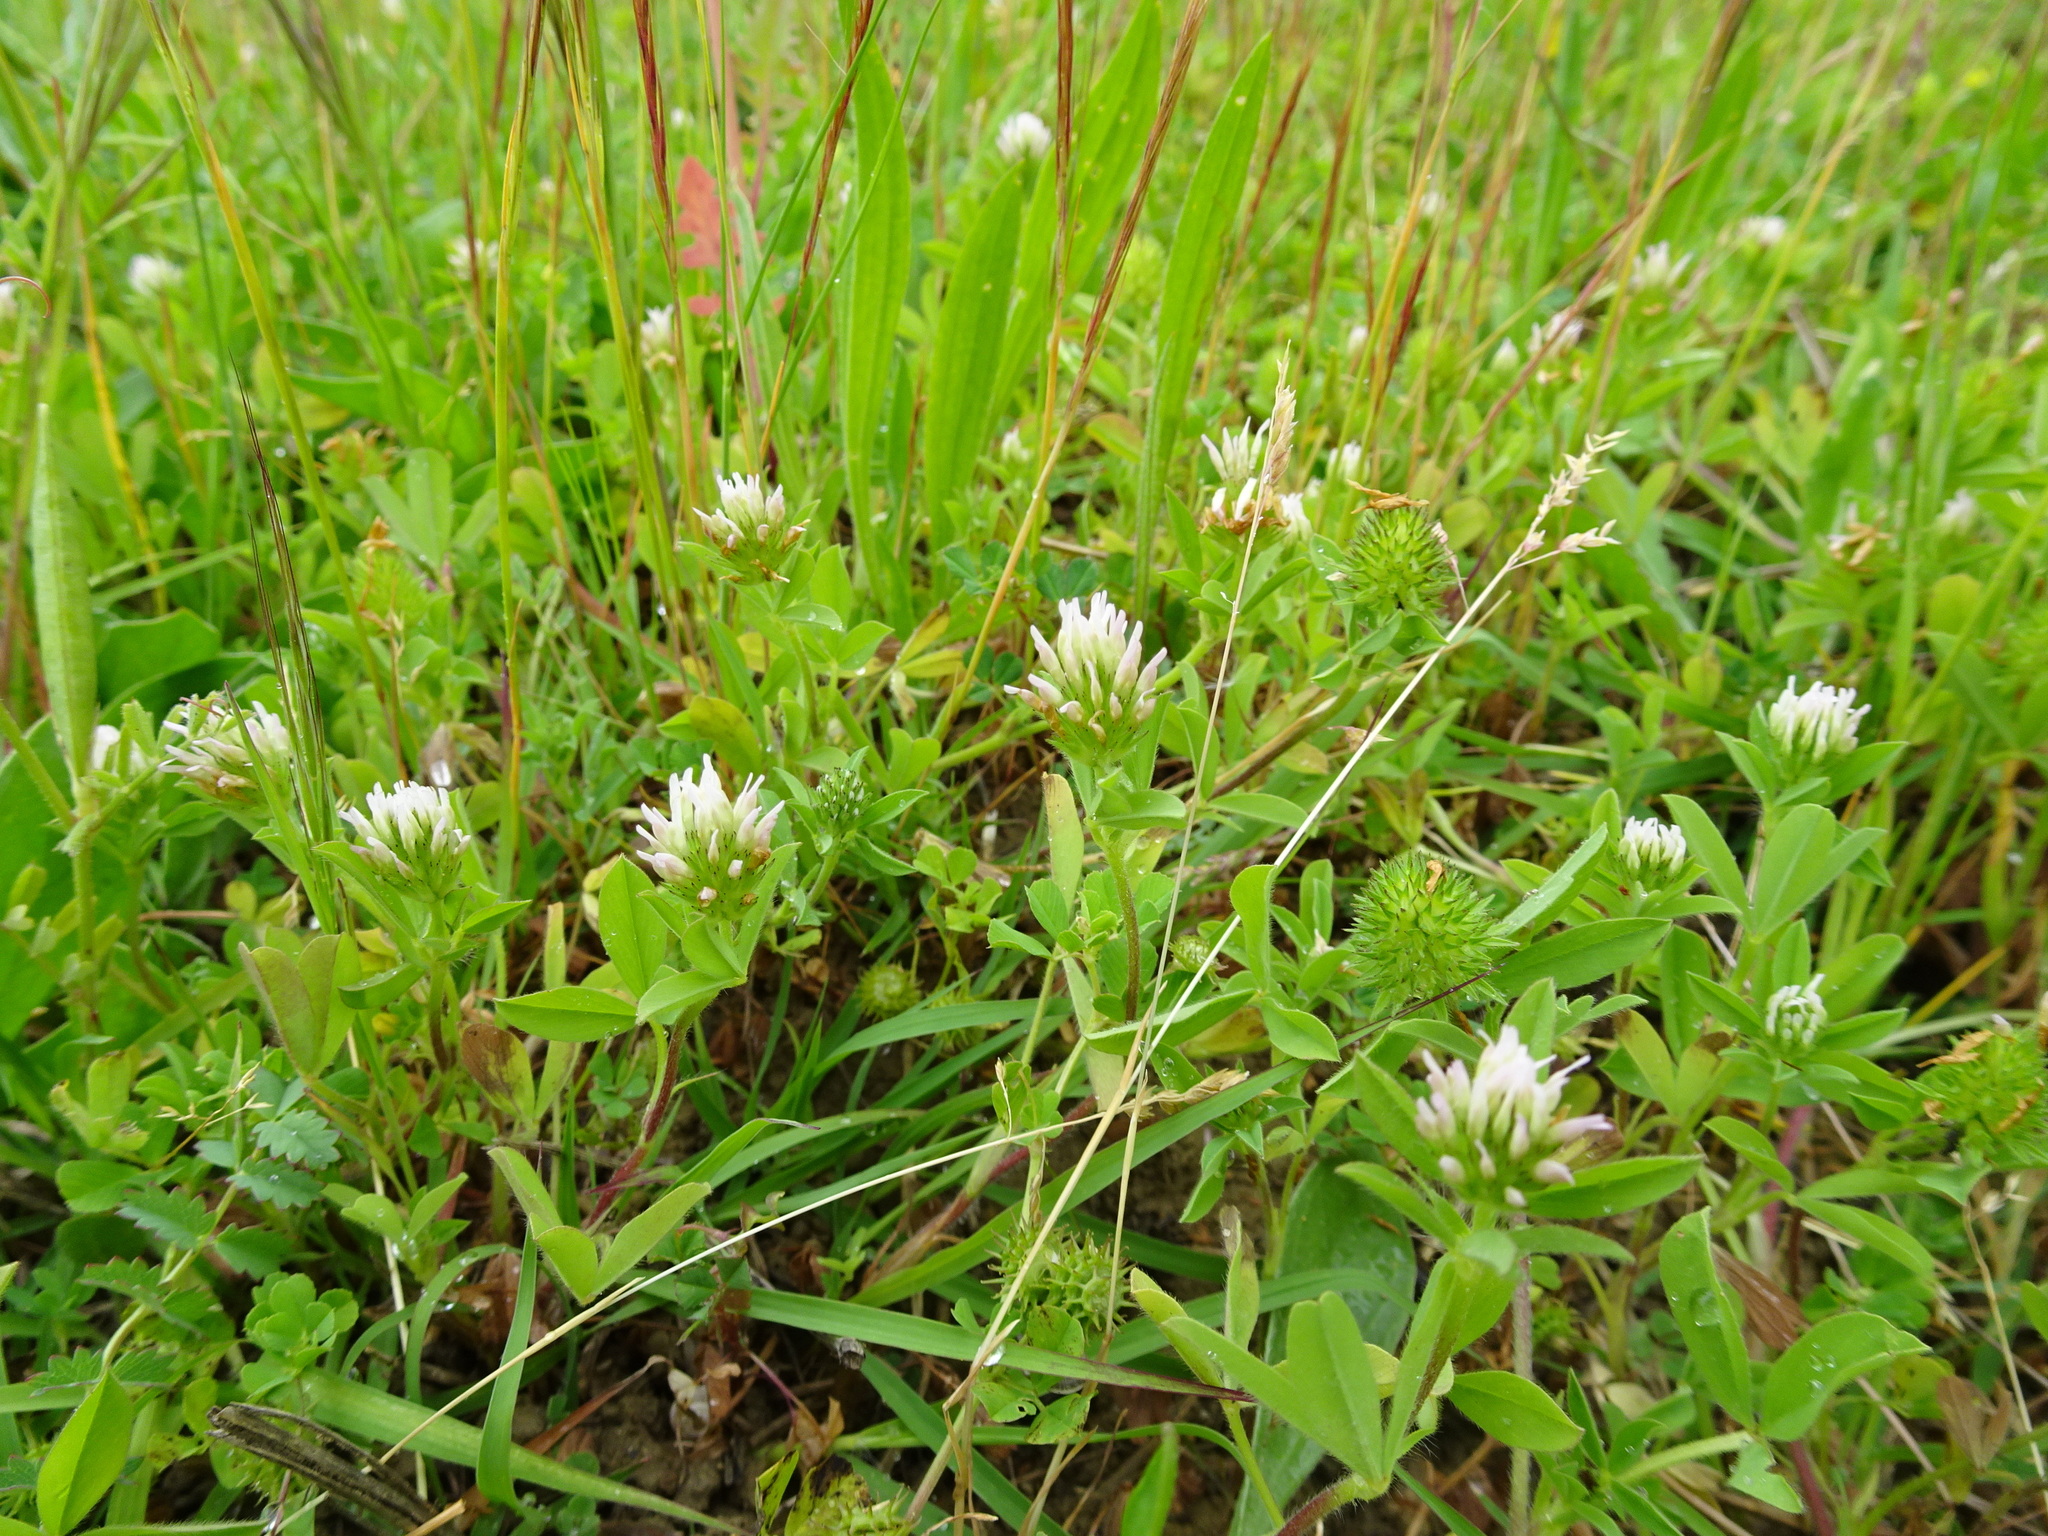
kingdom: Plantae
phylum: Tracheophyta
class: Magnoliopsida
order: Fabales
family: Fabaceae
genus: Trifolium
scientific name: Trifolium squamosum
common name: Sea clover
